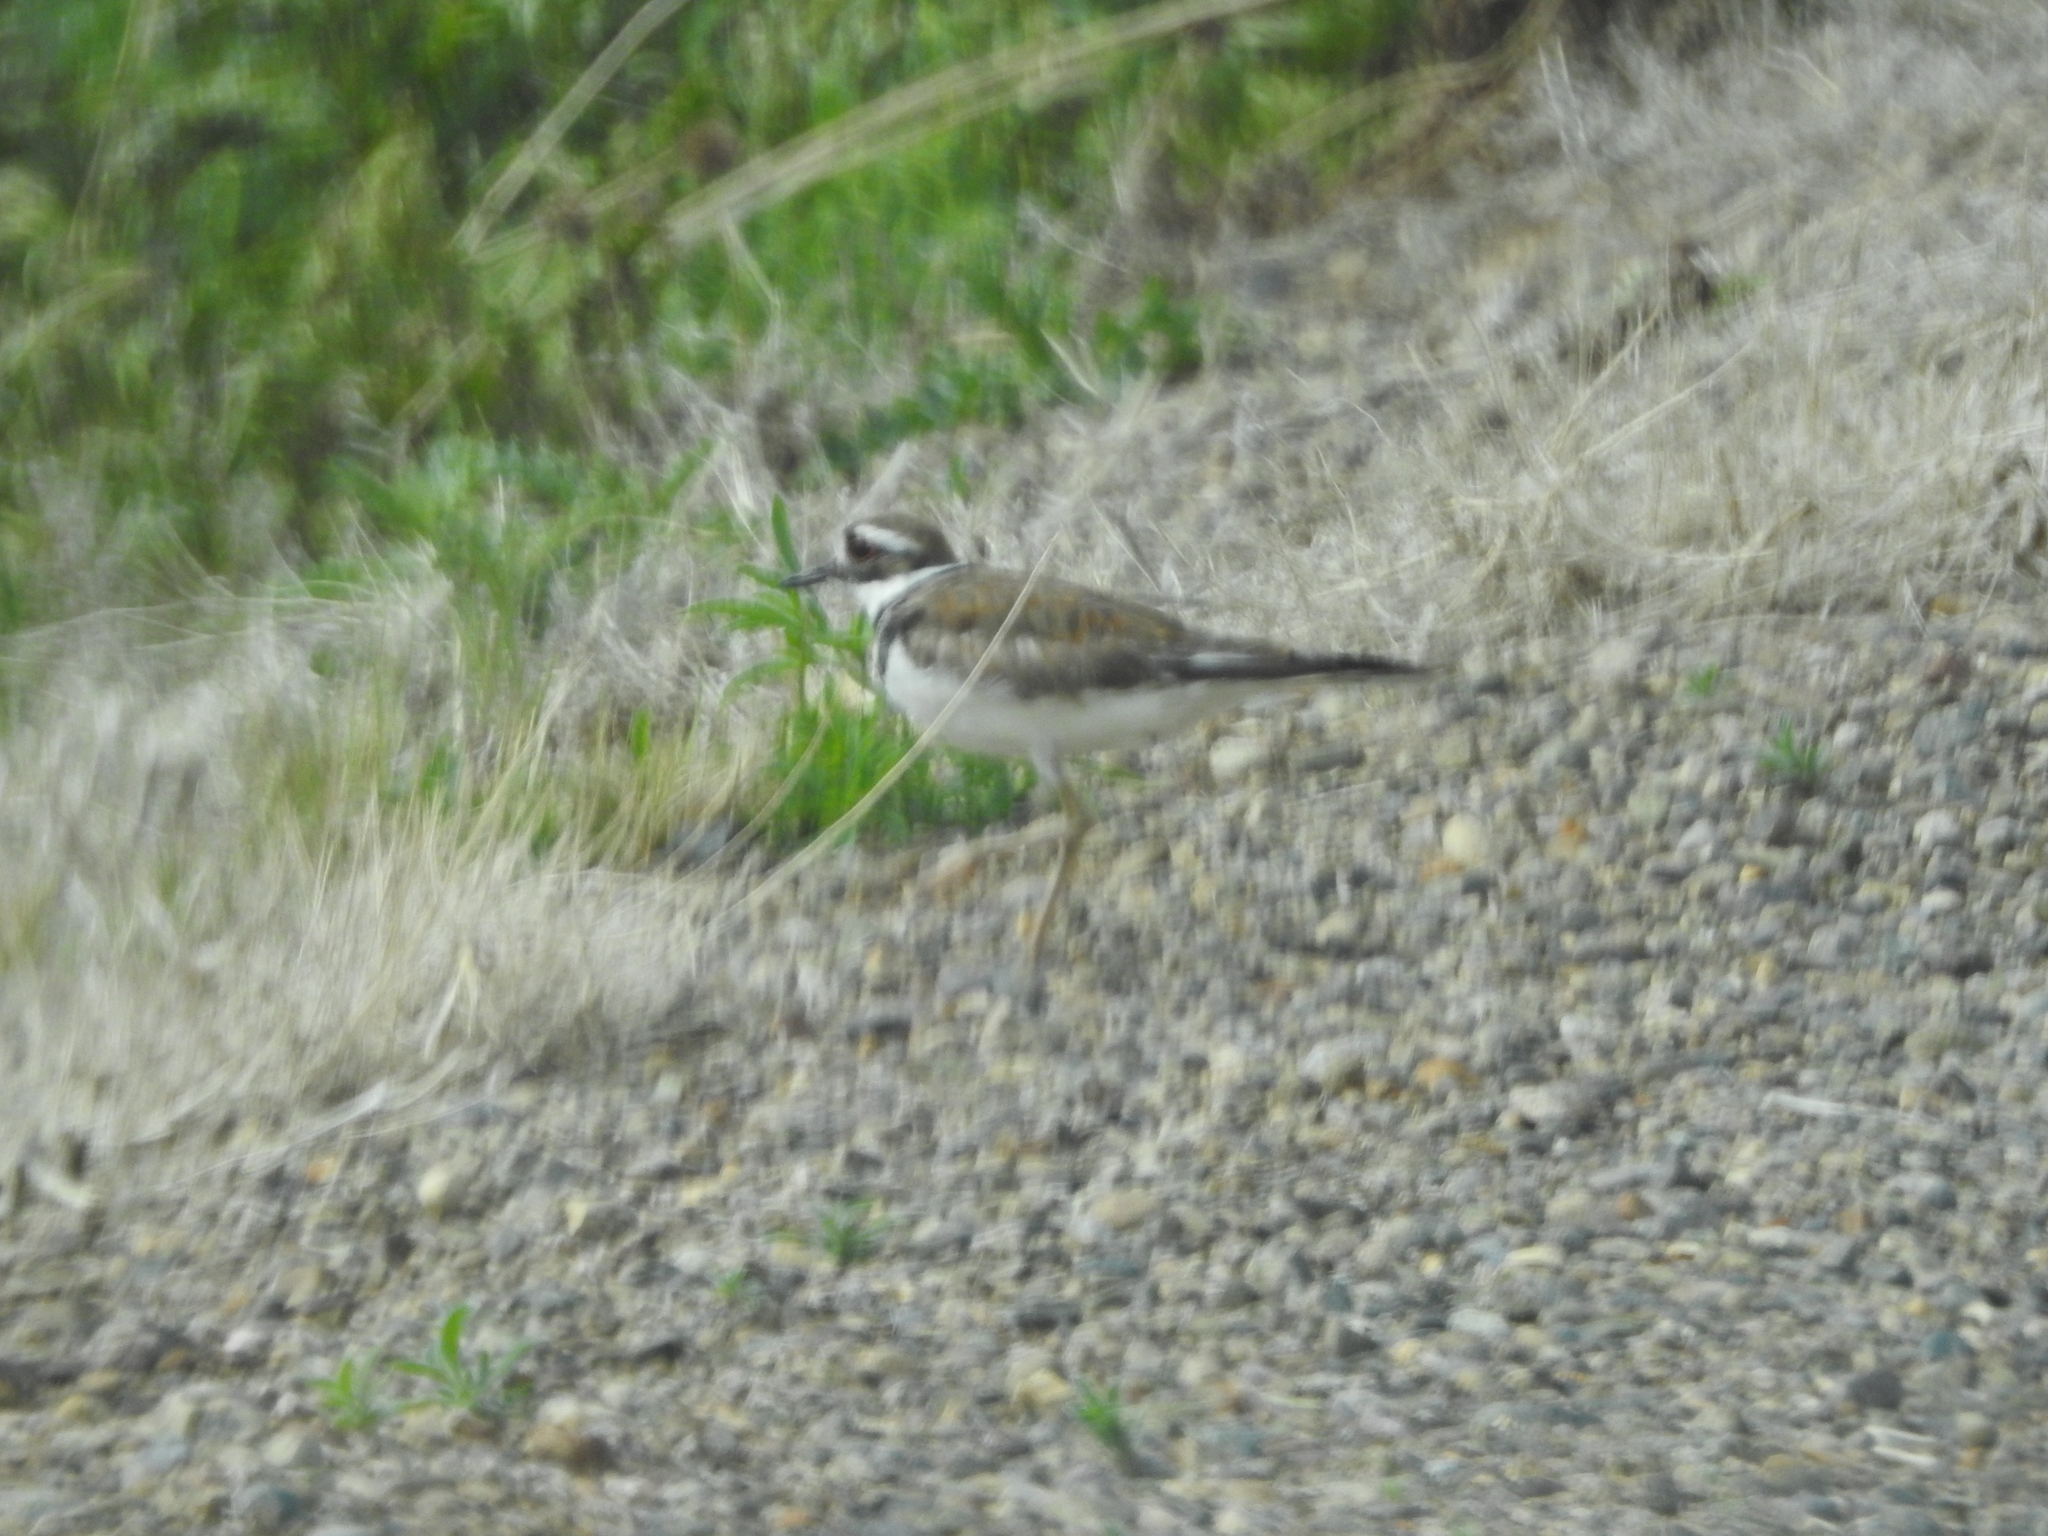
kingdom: Animalia
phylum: Chordata
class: Aves
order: Charadriiformes
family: Charadriidae
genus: Charadrius
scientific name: Charadrius vociferus
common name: Killdeer
